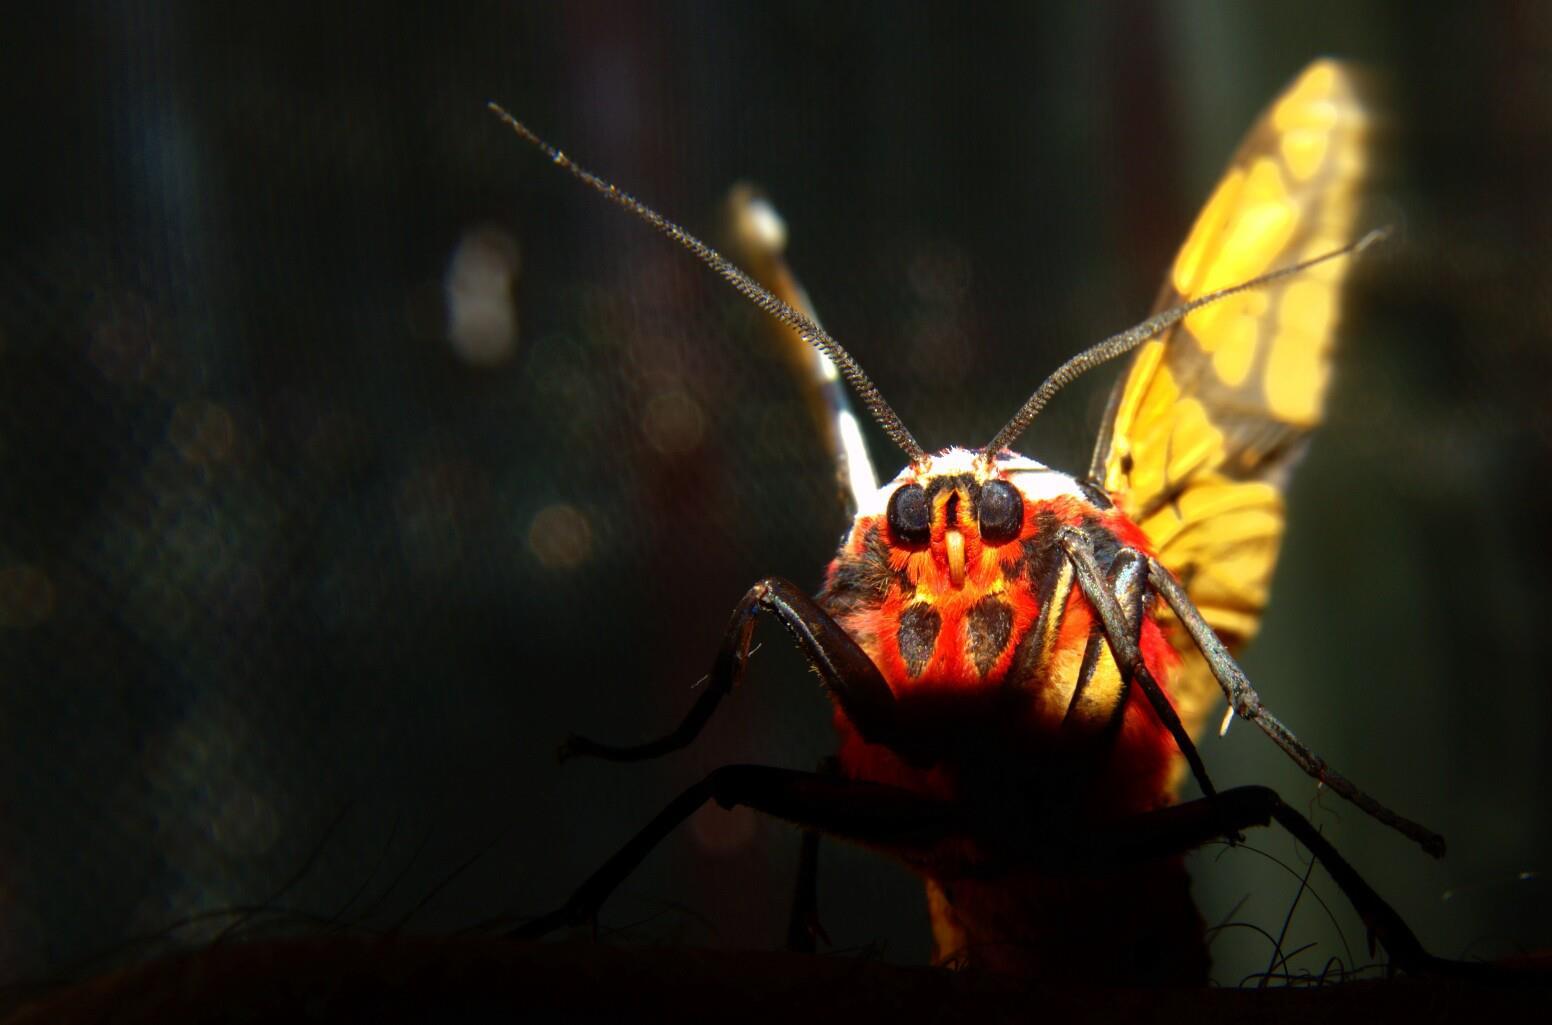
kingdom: Animalia
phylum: Arthropoda
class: Insecta
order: Lepidoptera
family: Erebidae
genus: Areas
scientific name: Areas galactina
